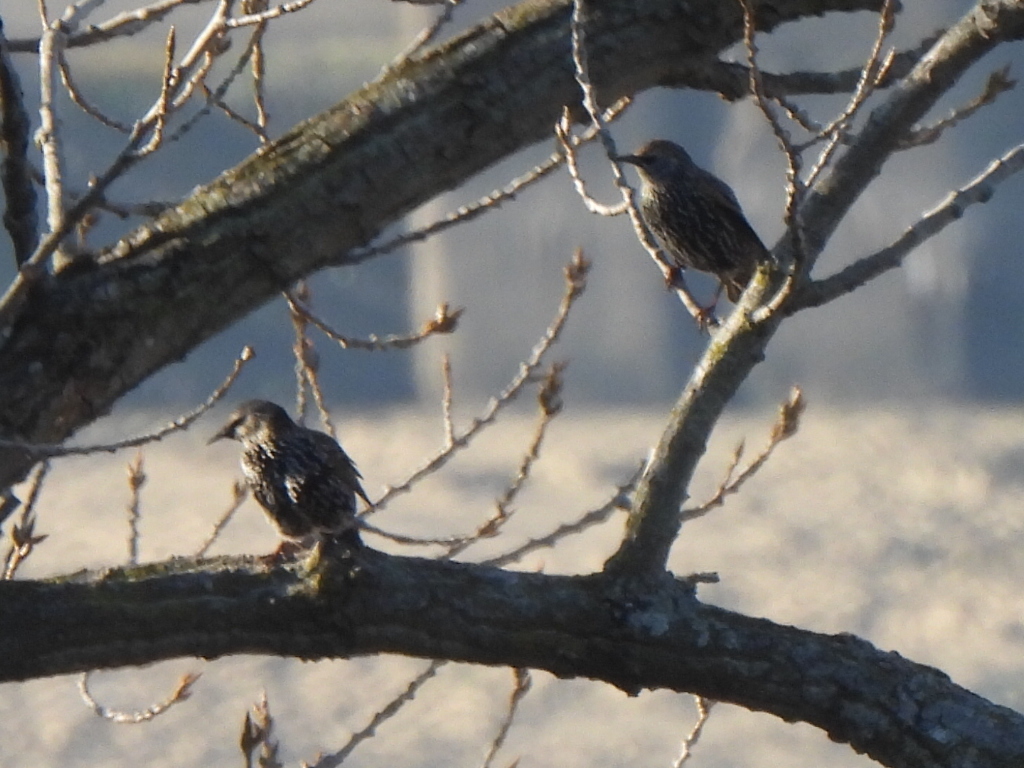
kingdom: Animalia
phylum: Chordata
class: Aves
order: Passeriformes
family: Sturnidae
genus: Sturnus
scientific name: Sturnus vulgaris
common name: Common starling
